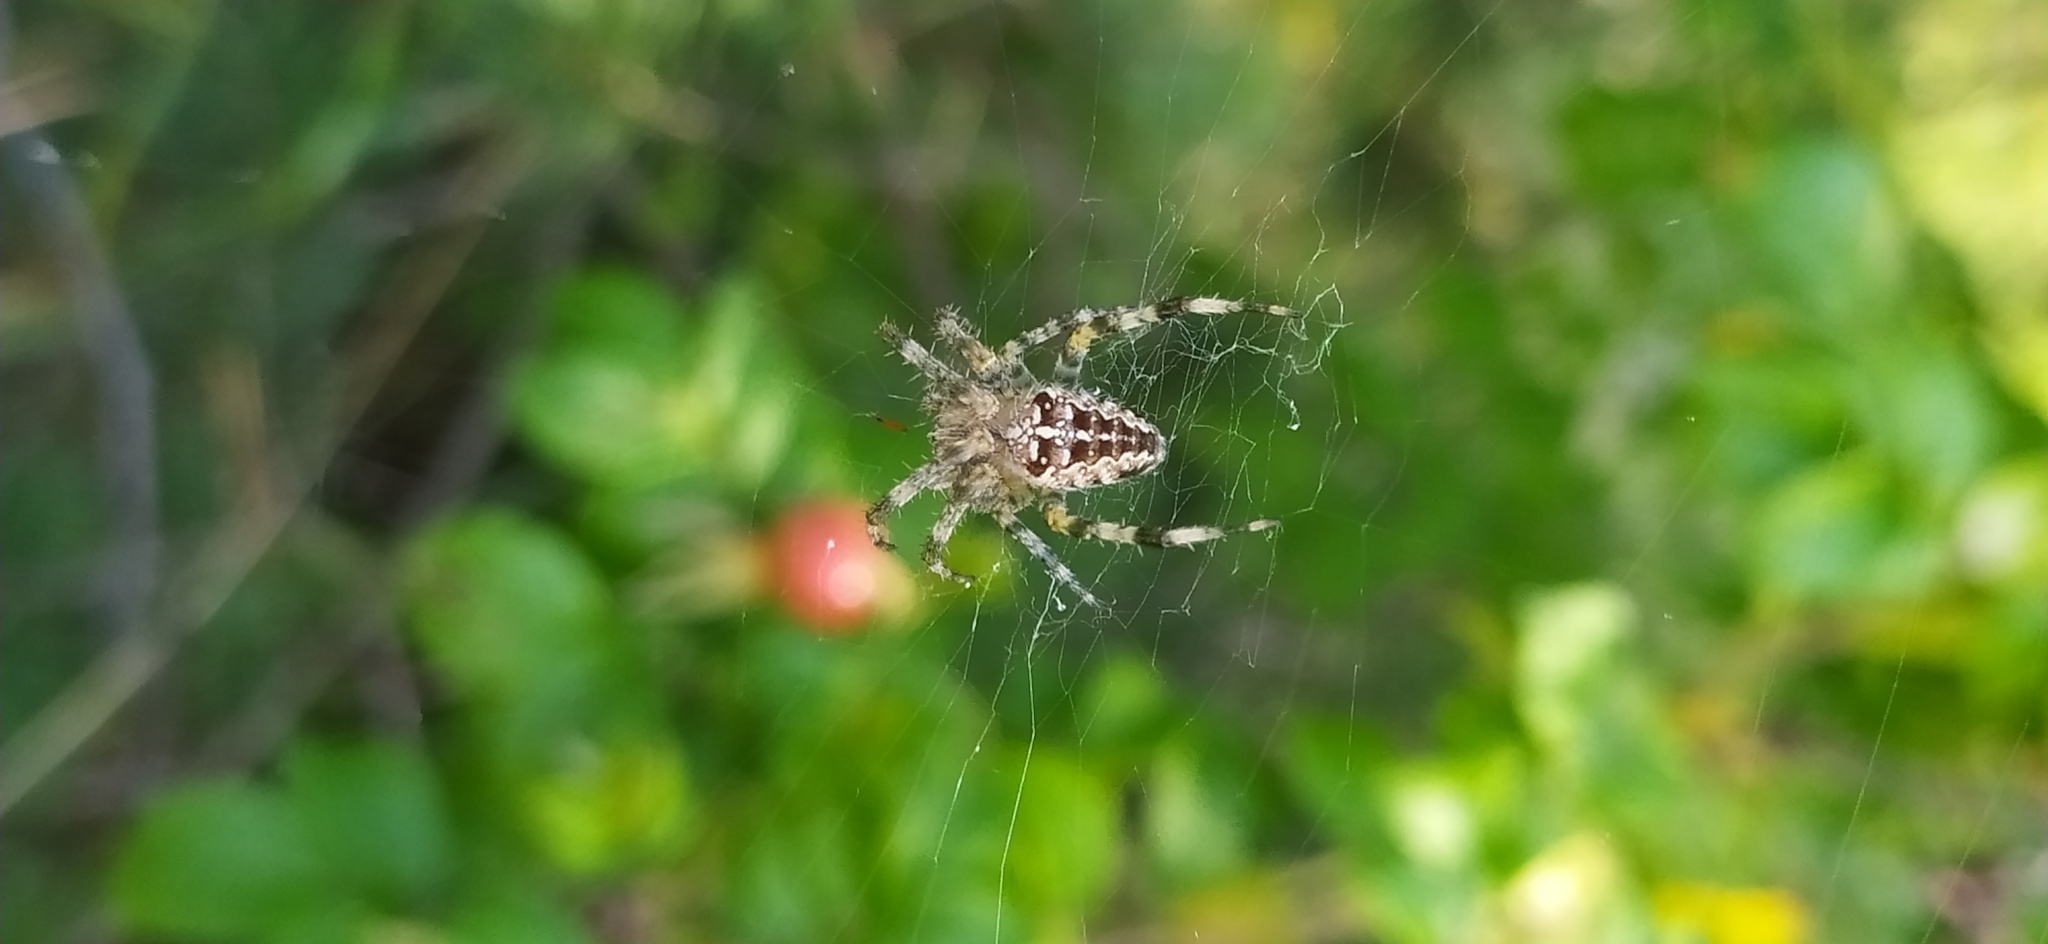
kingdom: Animalia
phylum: Arthropoda
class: Arachnida
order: Araneae
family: Araneidae
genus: Araneus
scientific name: Araneus diadematus
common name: Cross orbweaver
